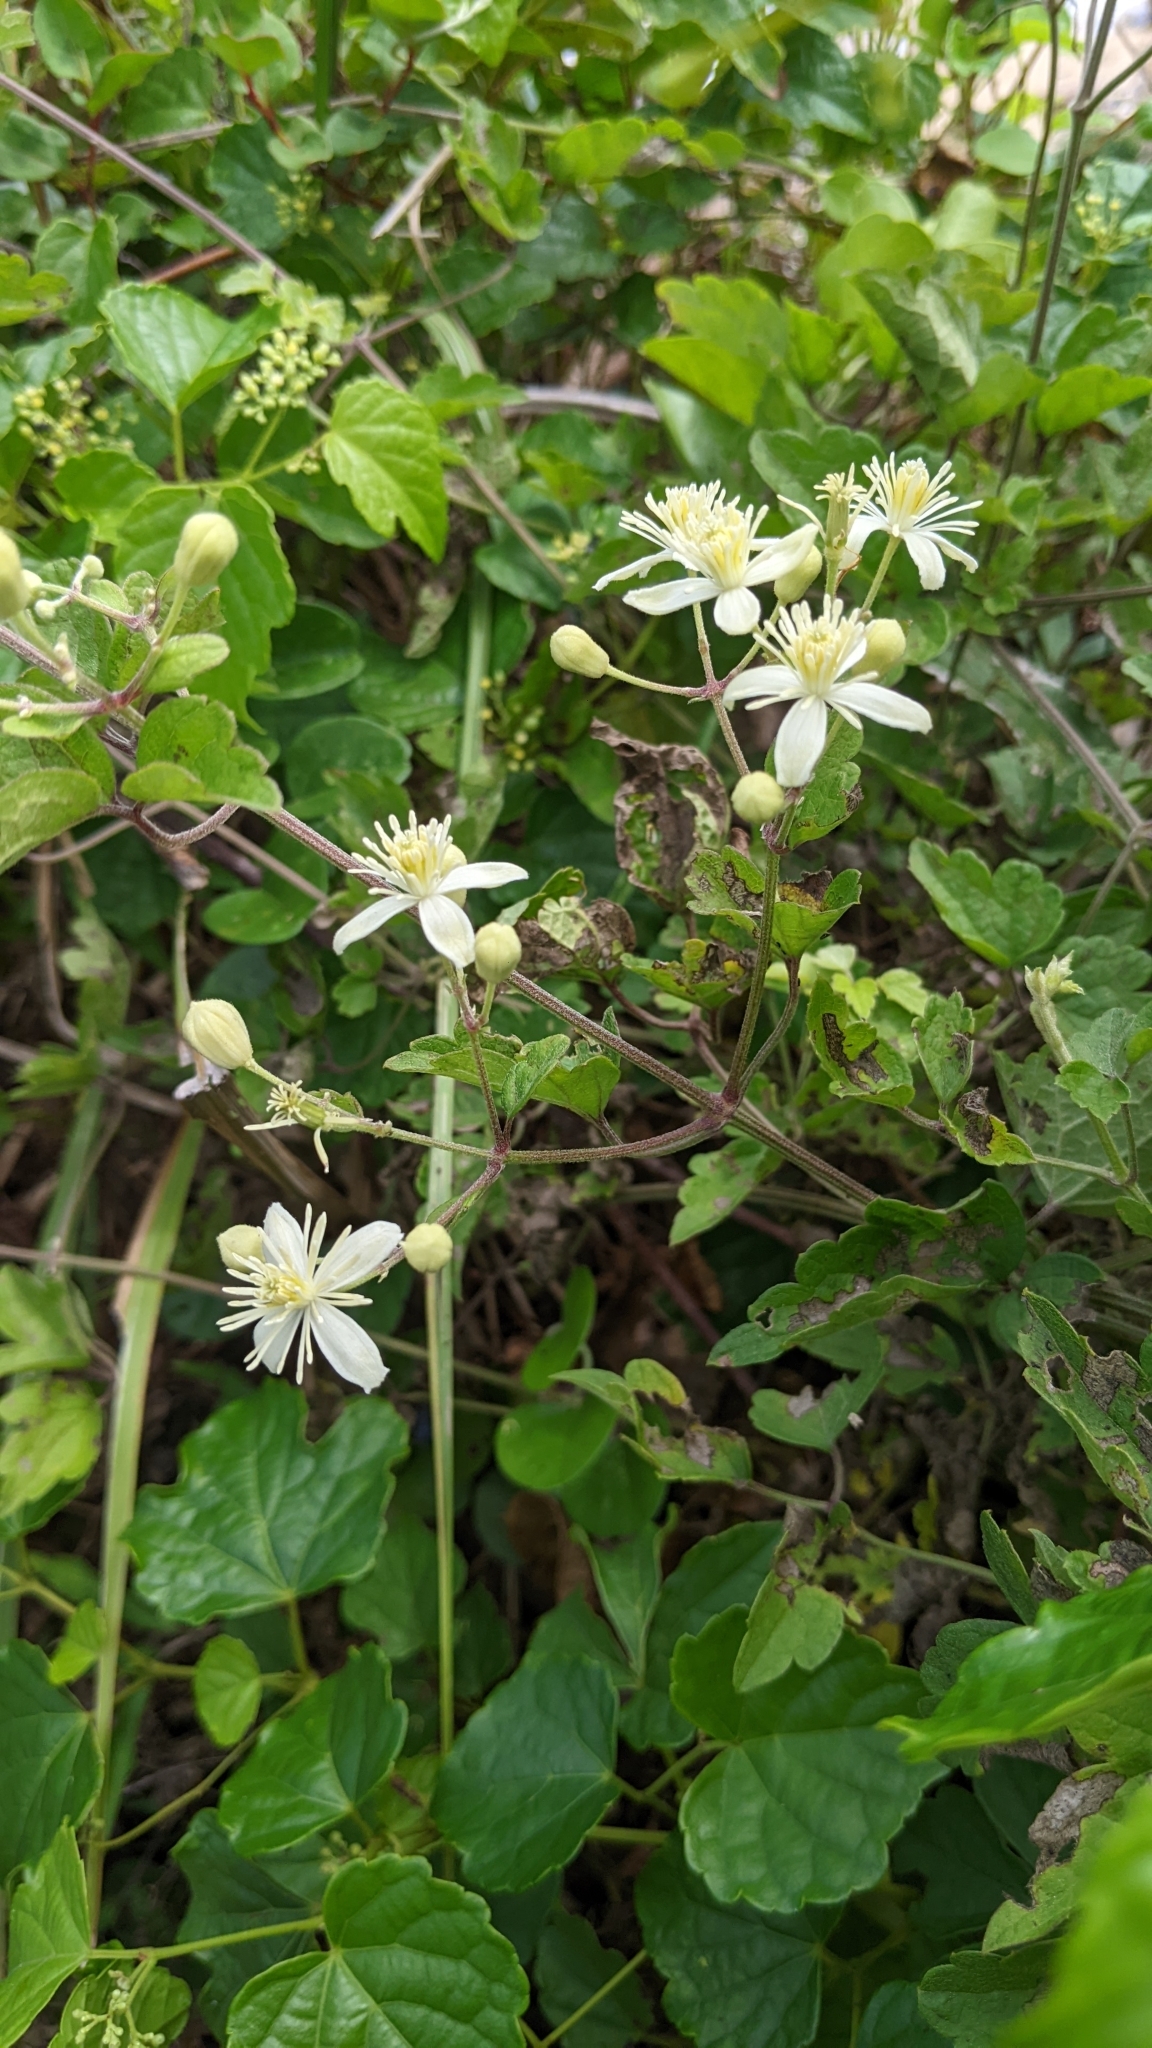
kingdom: Plantae
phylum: Tracheophyta
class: Magnoliopsida
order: Ranunculales
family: Ranunculaceae
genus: Clematis
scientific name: Clematis grata
